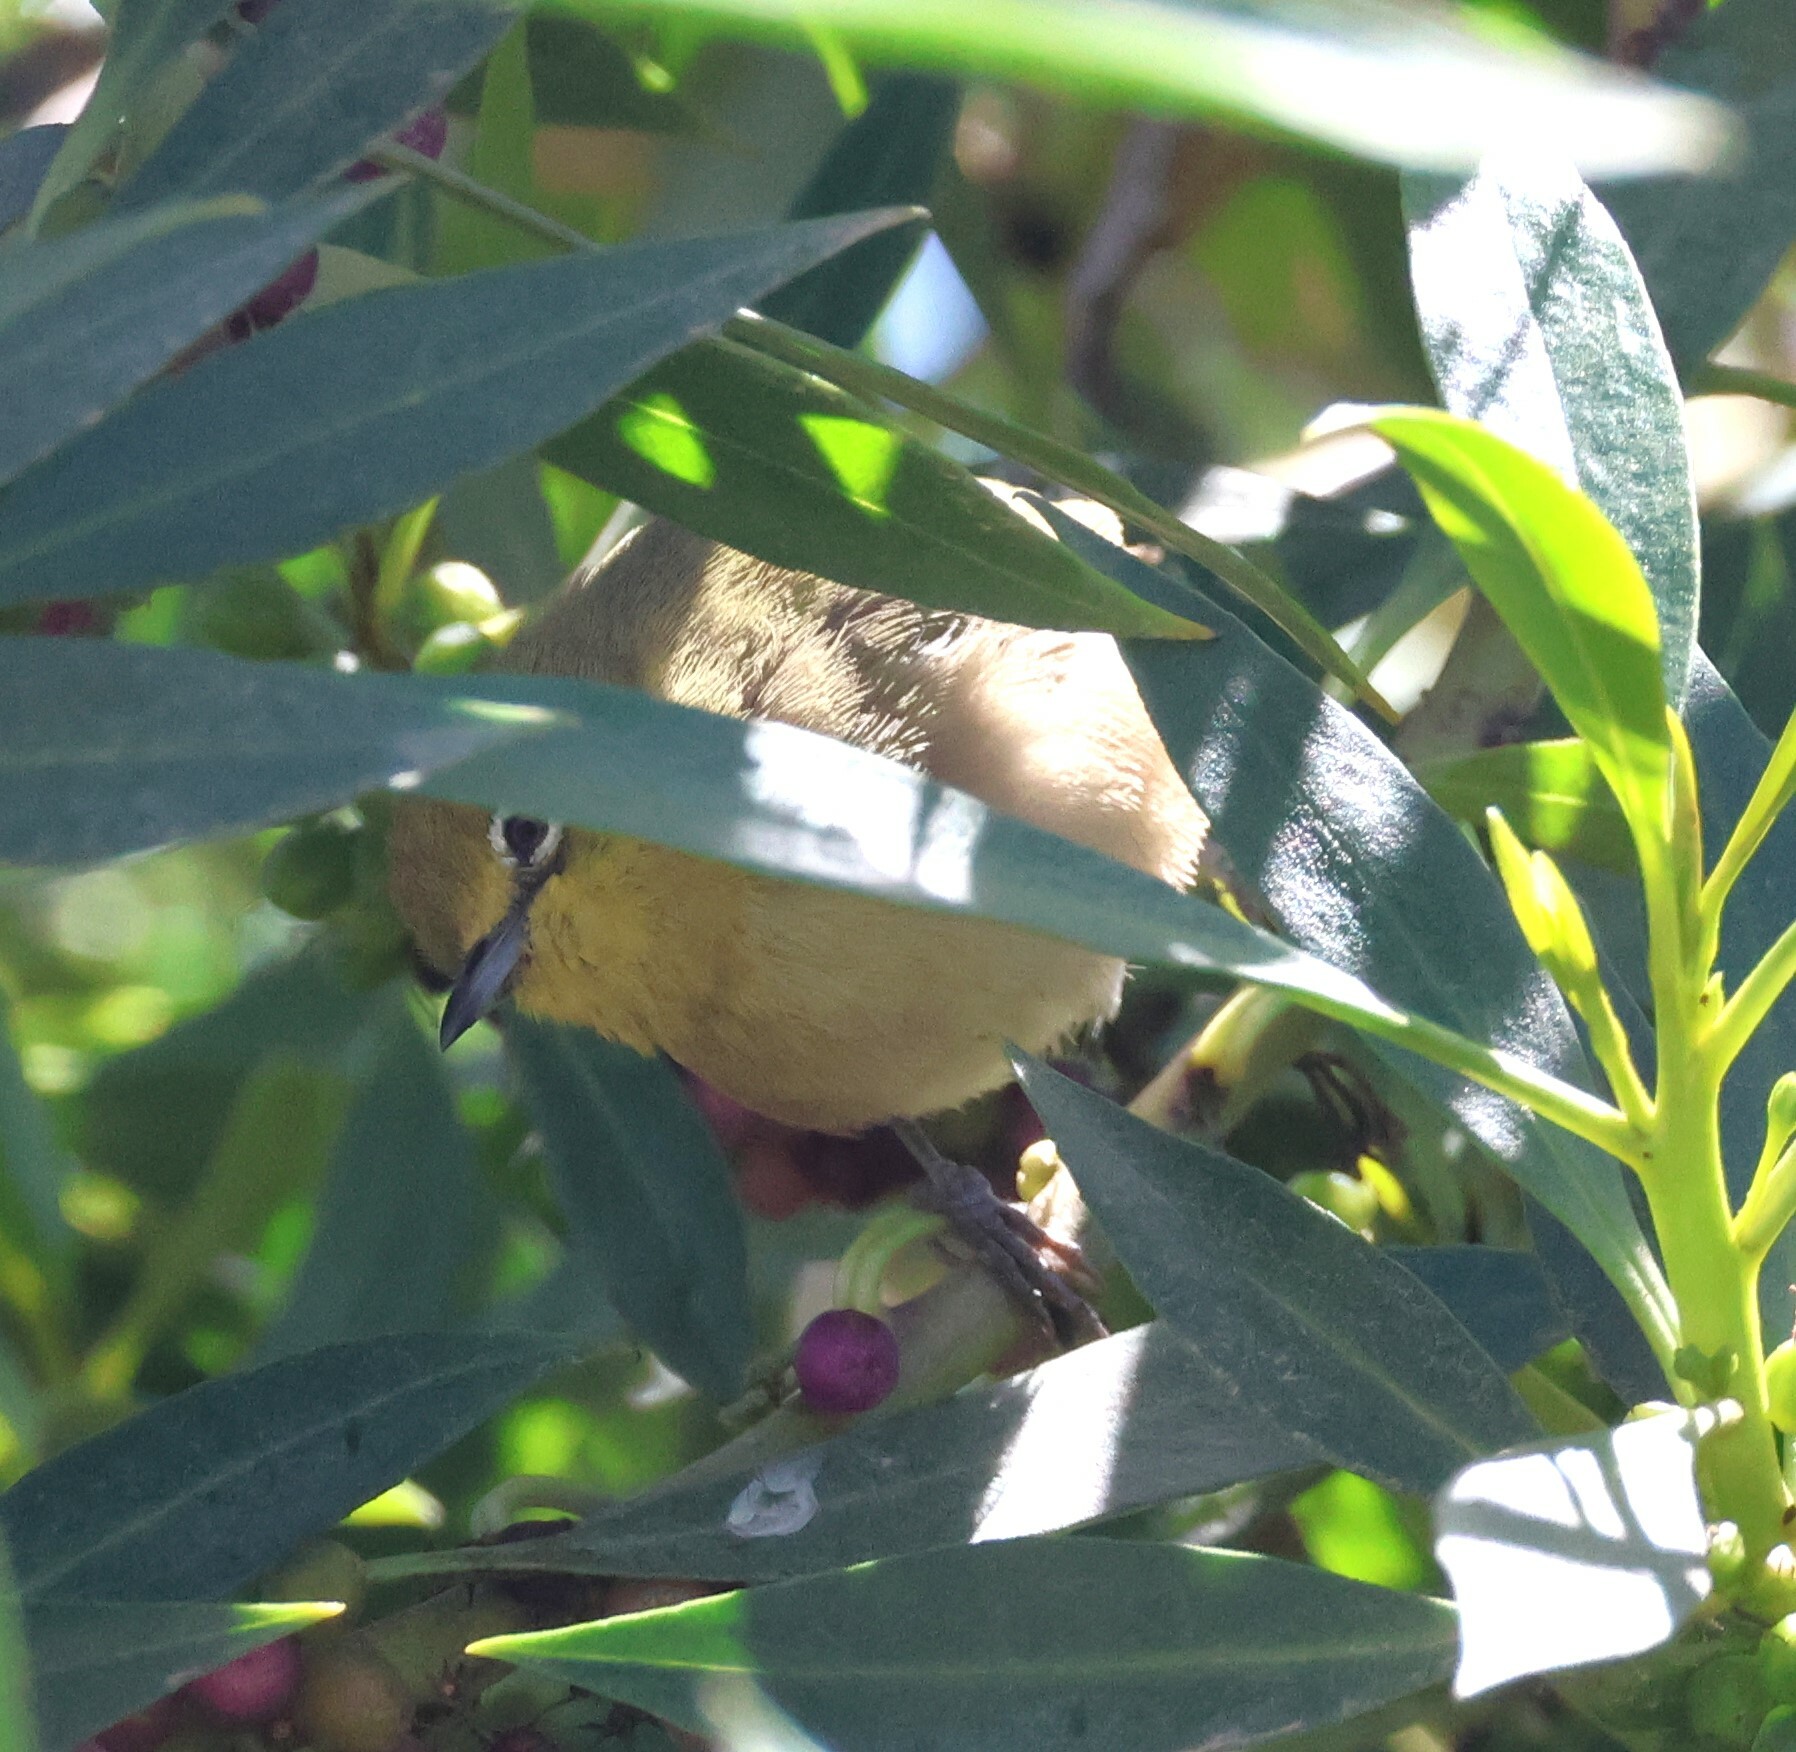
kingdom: Animalia
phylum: Chordata
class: Aves
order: Passeriformes
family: Zosteropidae
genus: Zosterops
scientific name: Zosterops pallidus
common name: Orange river white-eye
